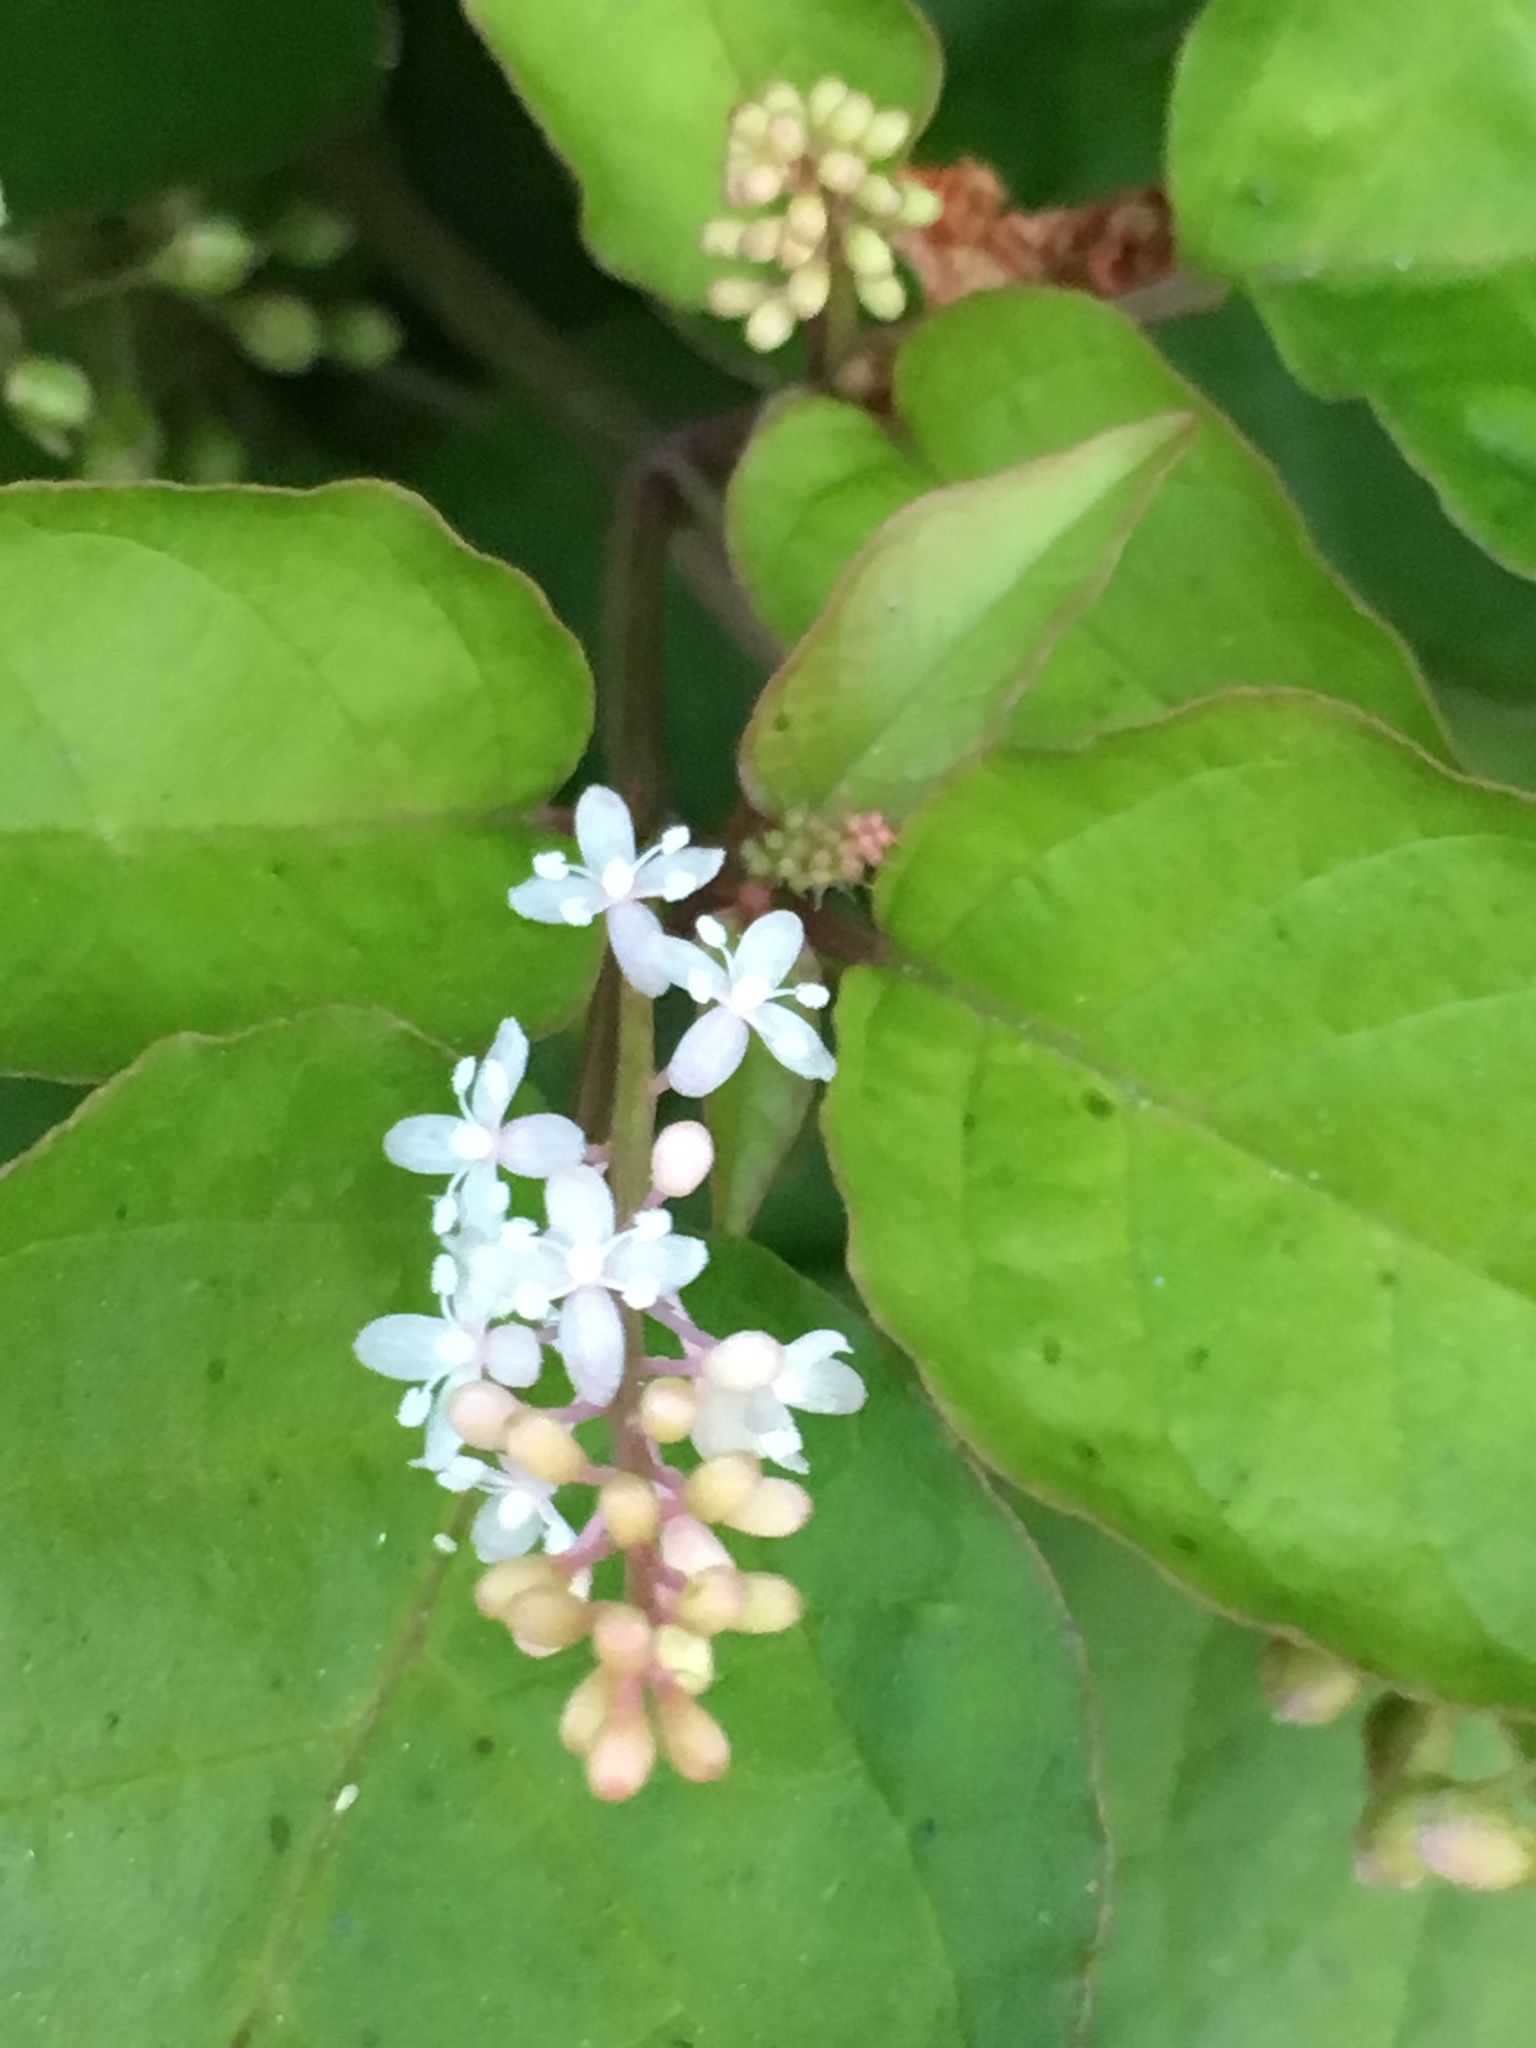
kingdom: Plantae
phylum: Tracheophyta
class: Magnoliopsida
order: Caryophyllales
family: Phytolaccaceae
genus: Rivina
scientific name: Rivina humilis
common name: Rougeplant
